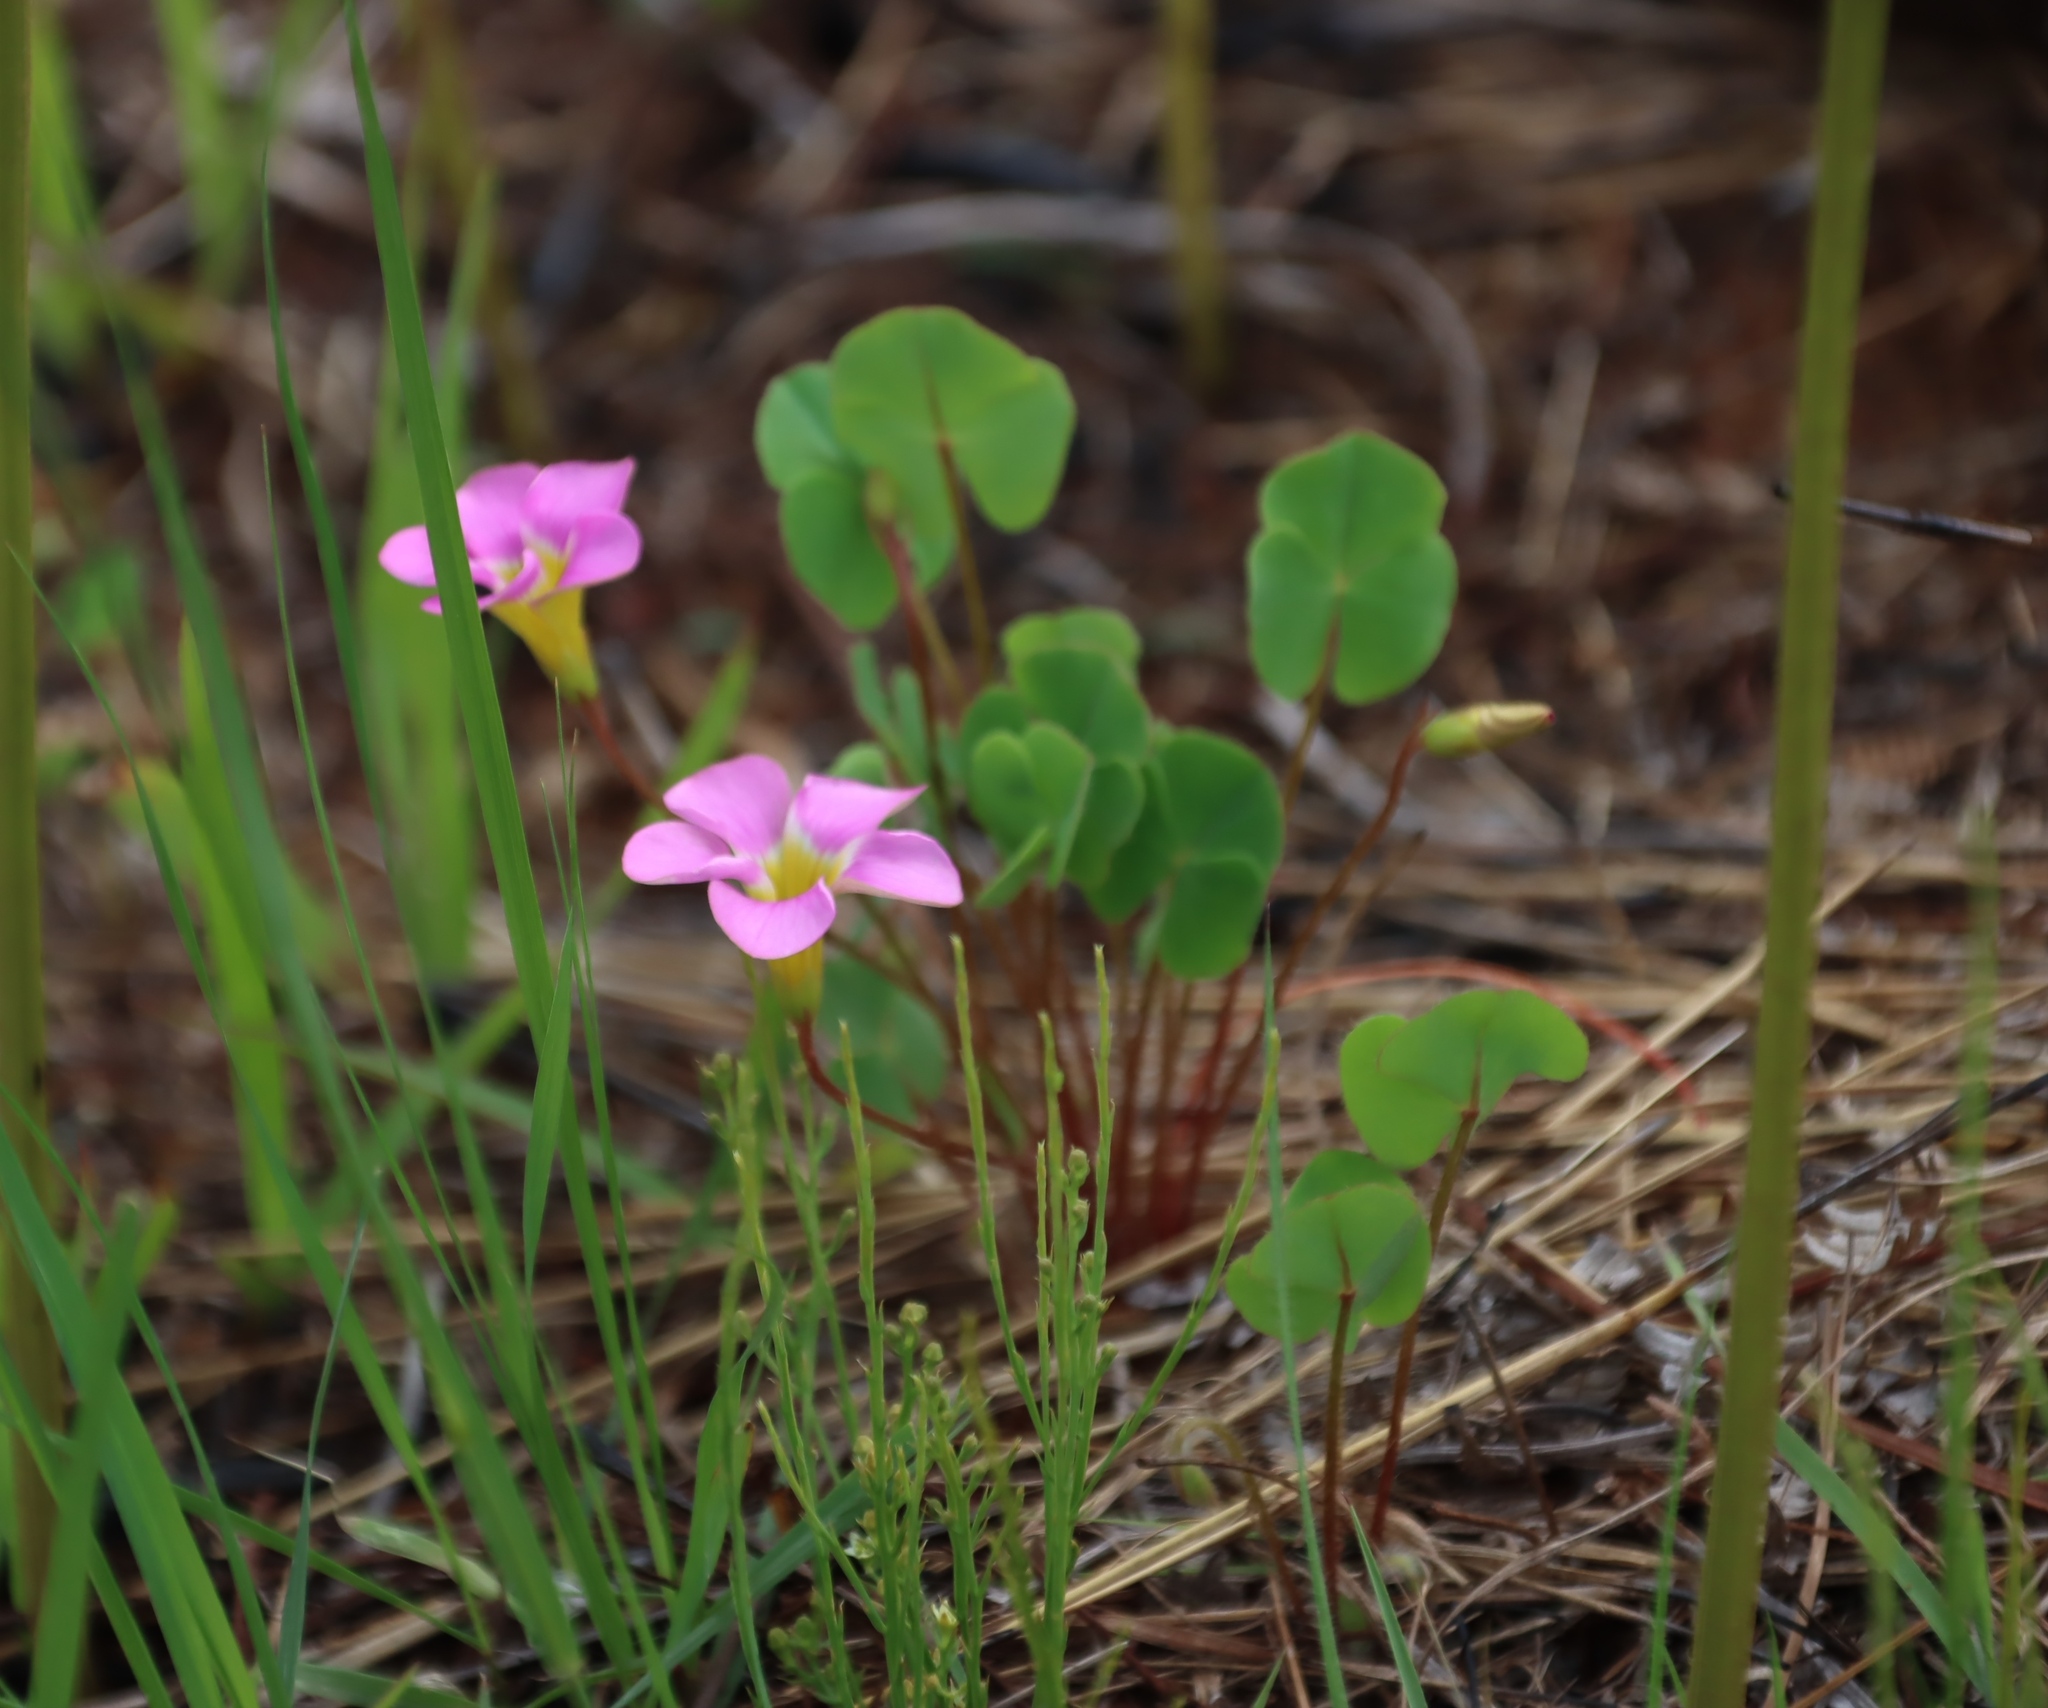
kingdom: Plantae
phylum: Tracheophyta
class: Magnoliopsida
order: Oxalidales
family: Oxalidaceae
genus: Oxalis
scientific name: Oxalis obliquifolia
